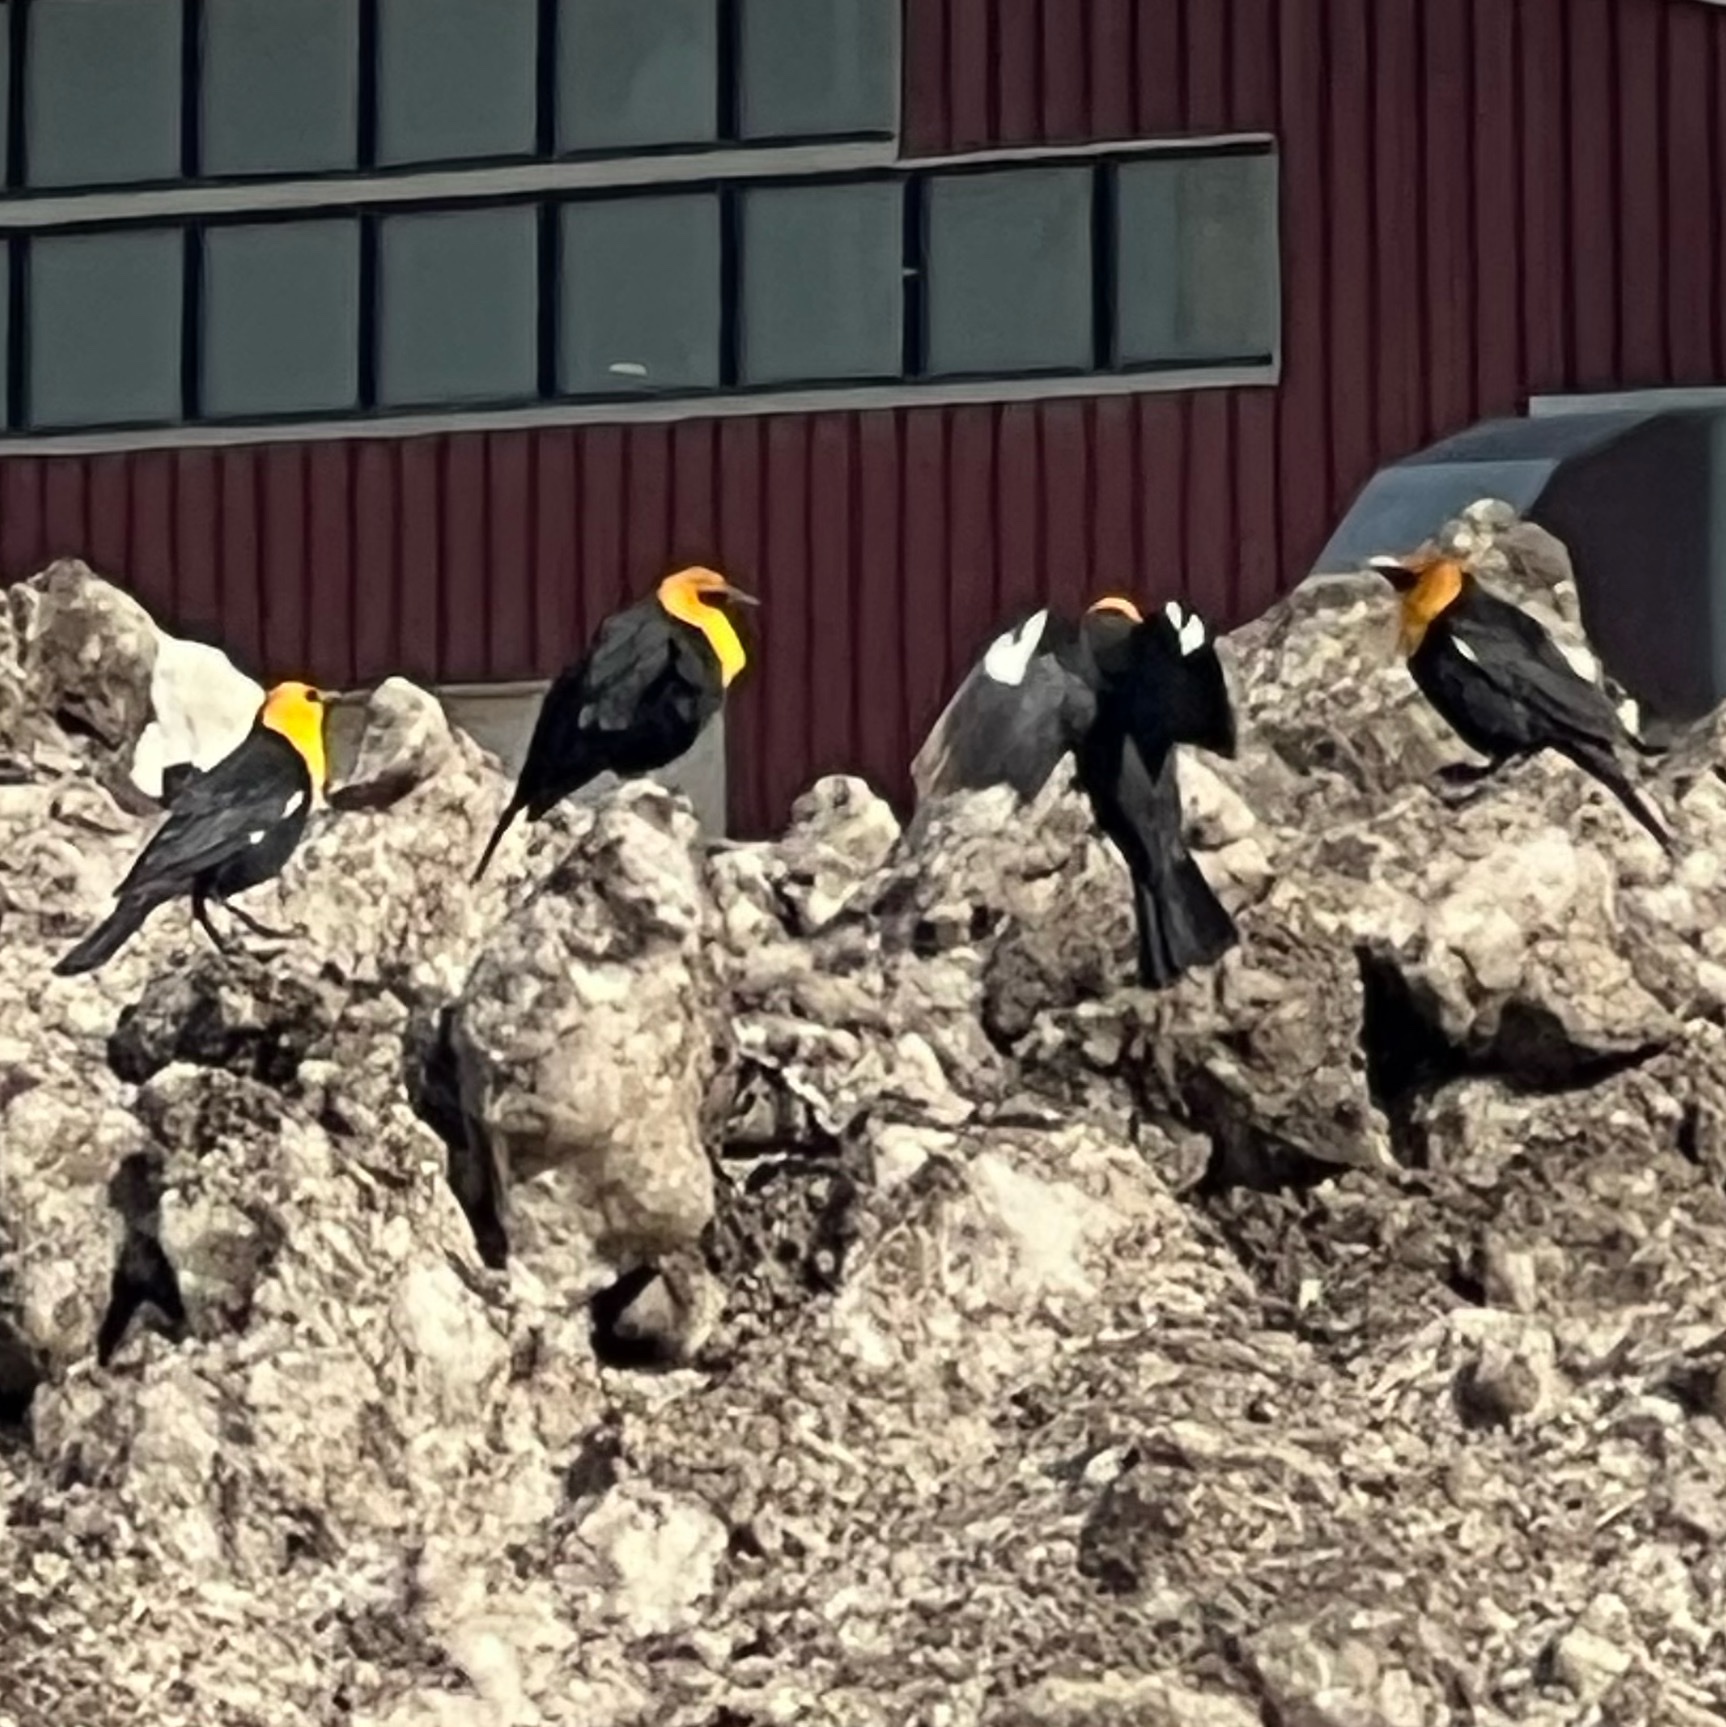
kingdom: Animalia
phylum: Chordata
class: Aves
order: Passeriformes
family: Icteridae
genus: Xanthocephalus
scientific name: Xanthocephalus xanthocephalus
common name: Yellow-headed blackbird
